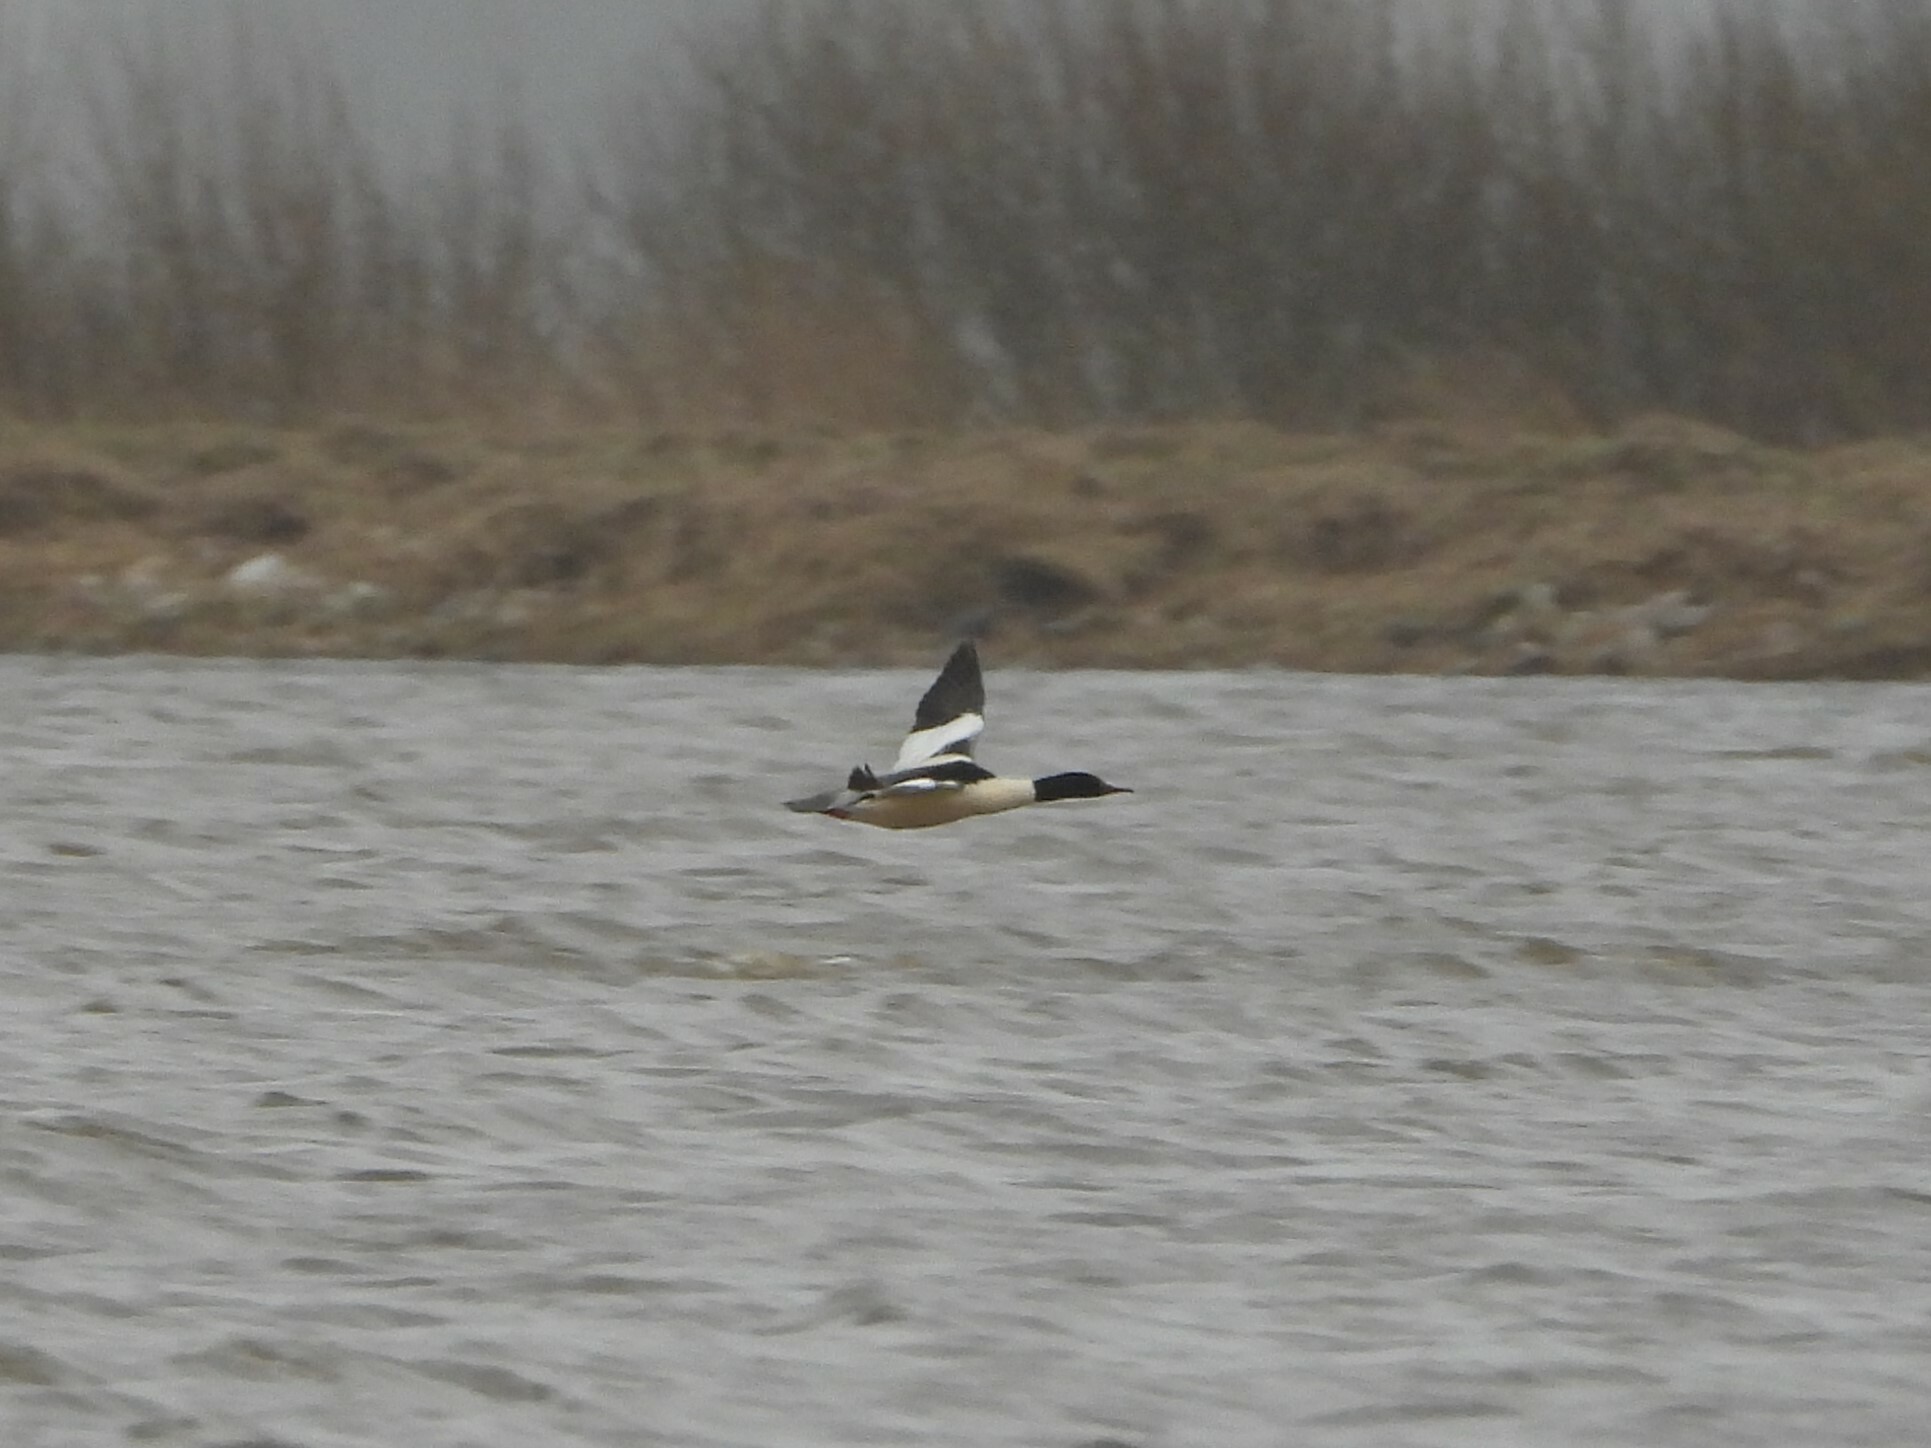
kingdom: Animalia
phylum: Chordata
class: Aves
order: Anseriformes
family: Anatidae
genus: Mergus
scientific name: Mergus merganser
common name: Common merganser
